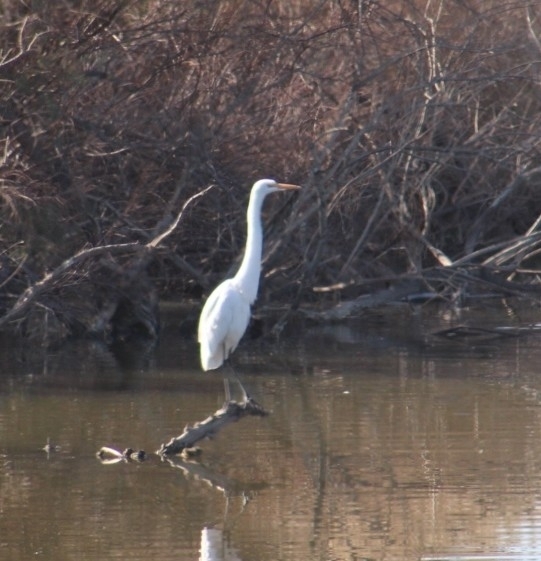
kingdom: Animalia
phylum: Chordata
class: Aves
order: Pelecaniformes
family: Ardeidae
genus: Ardea
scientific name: Ardea alba
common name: Great egret
